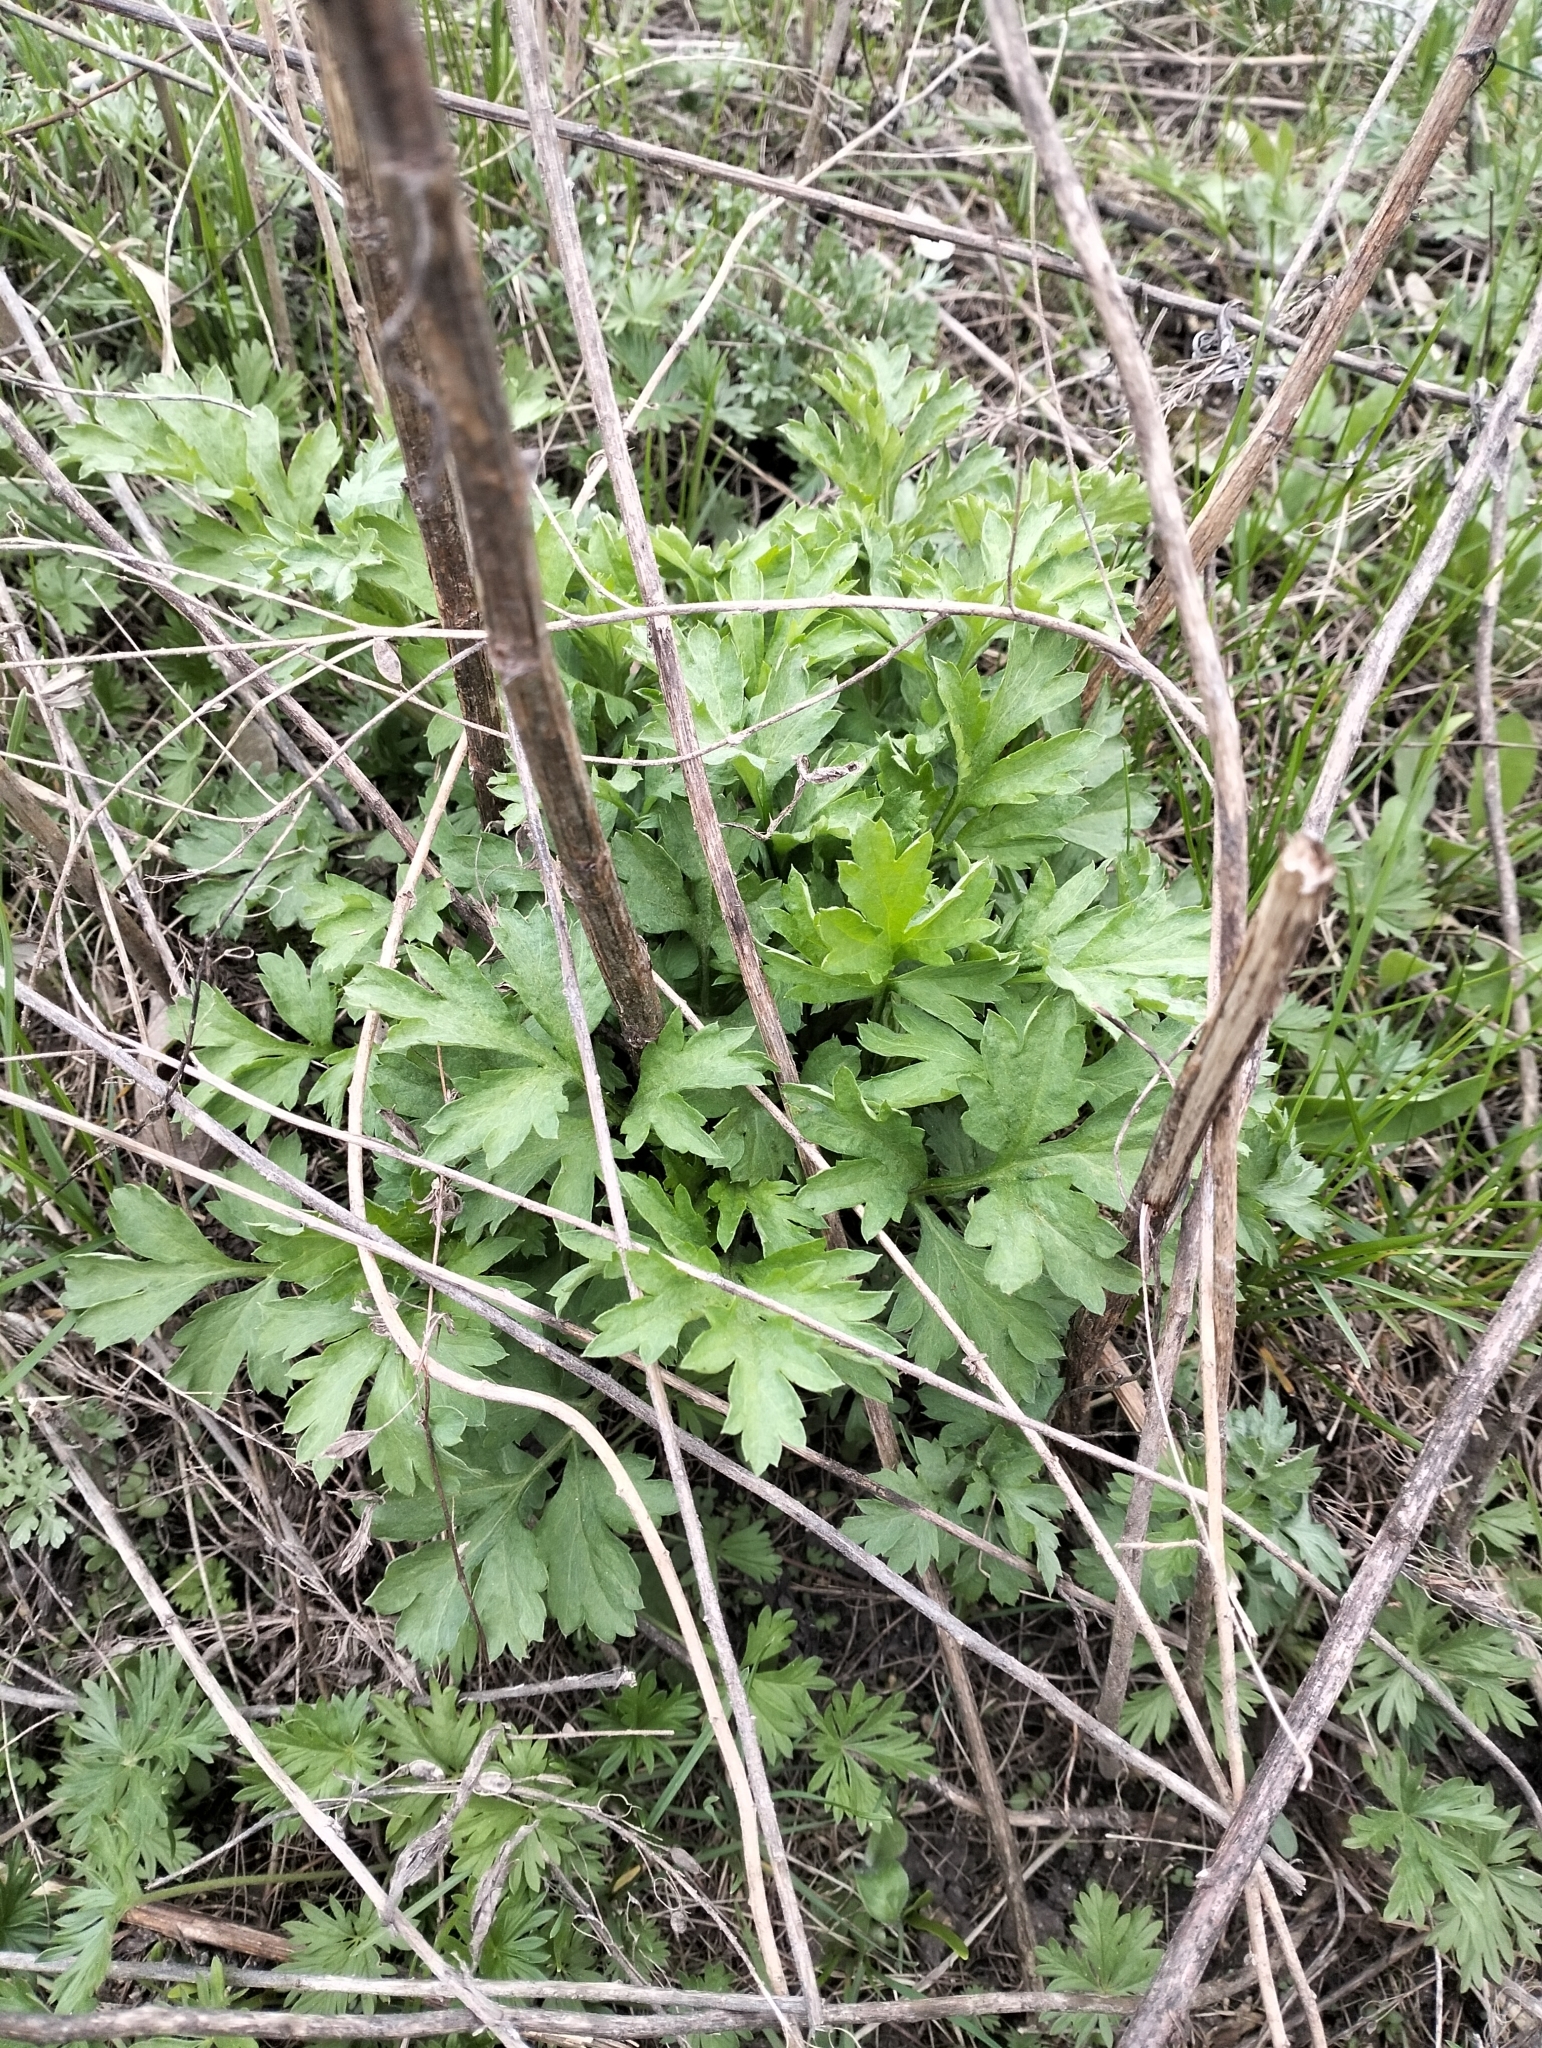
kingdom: Plantae
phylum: Tracheophyta
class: Magnoliopsida
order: Asterales
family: Asteraceae
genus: Artemisia
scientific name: Artemisia vulgaris
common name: Mugwort
